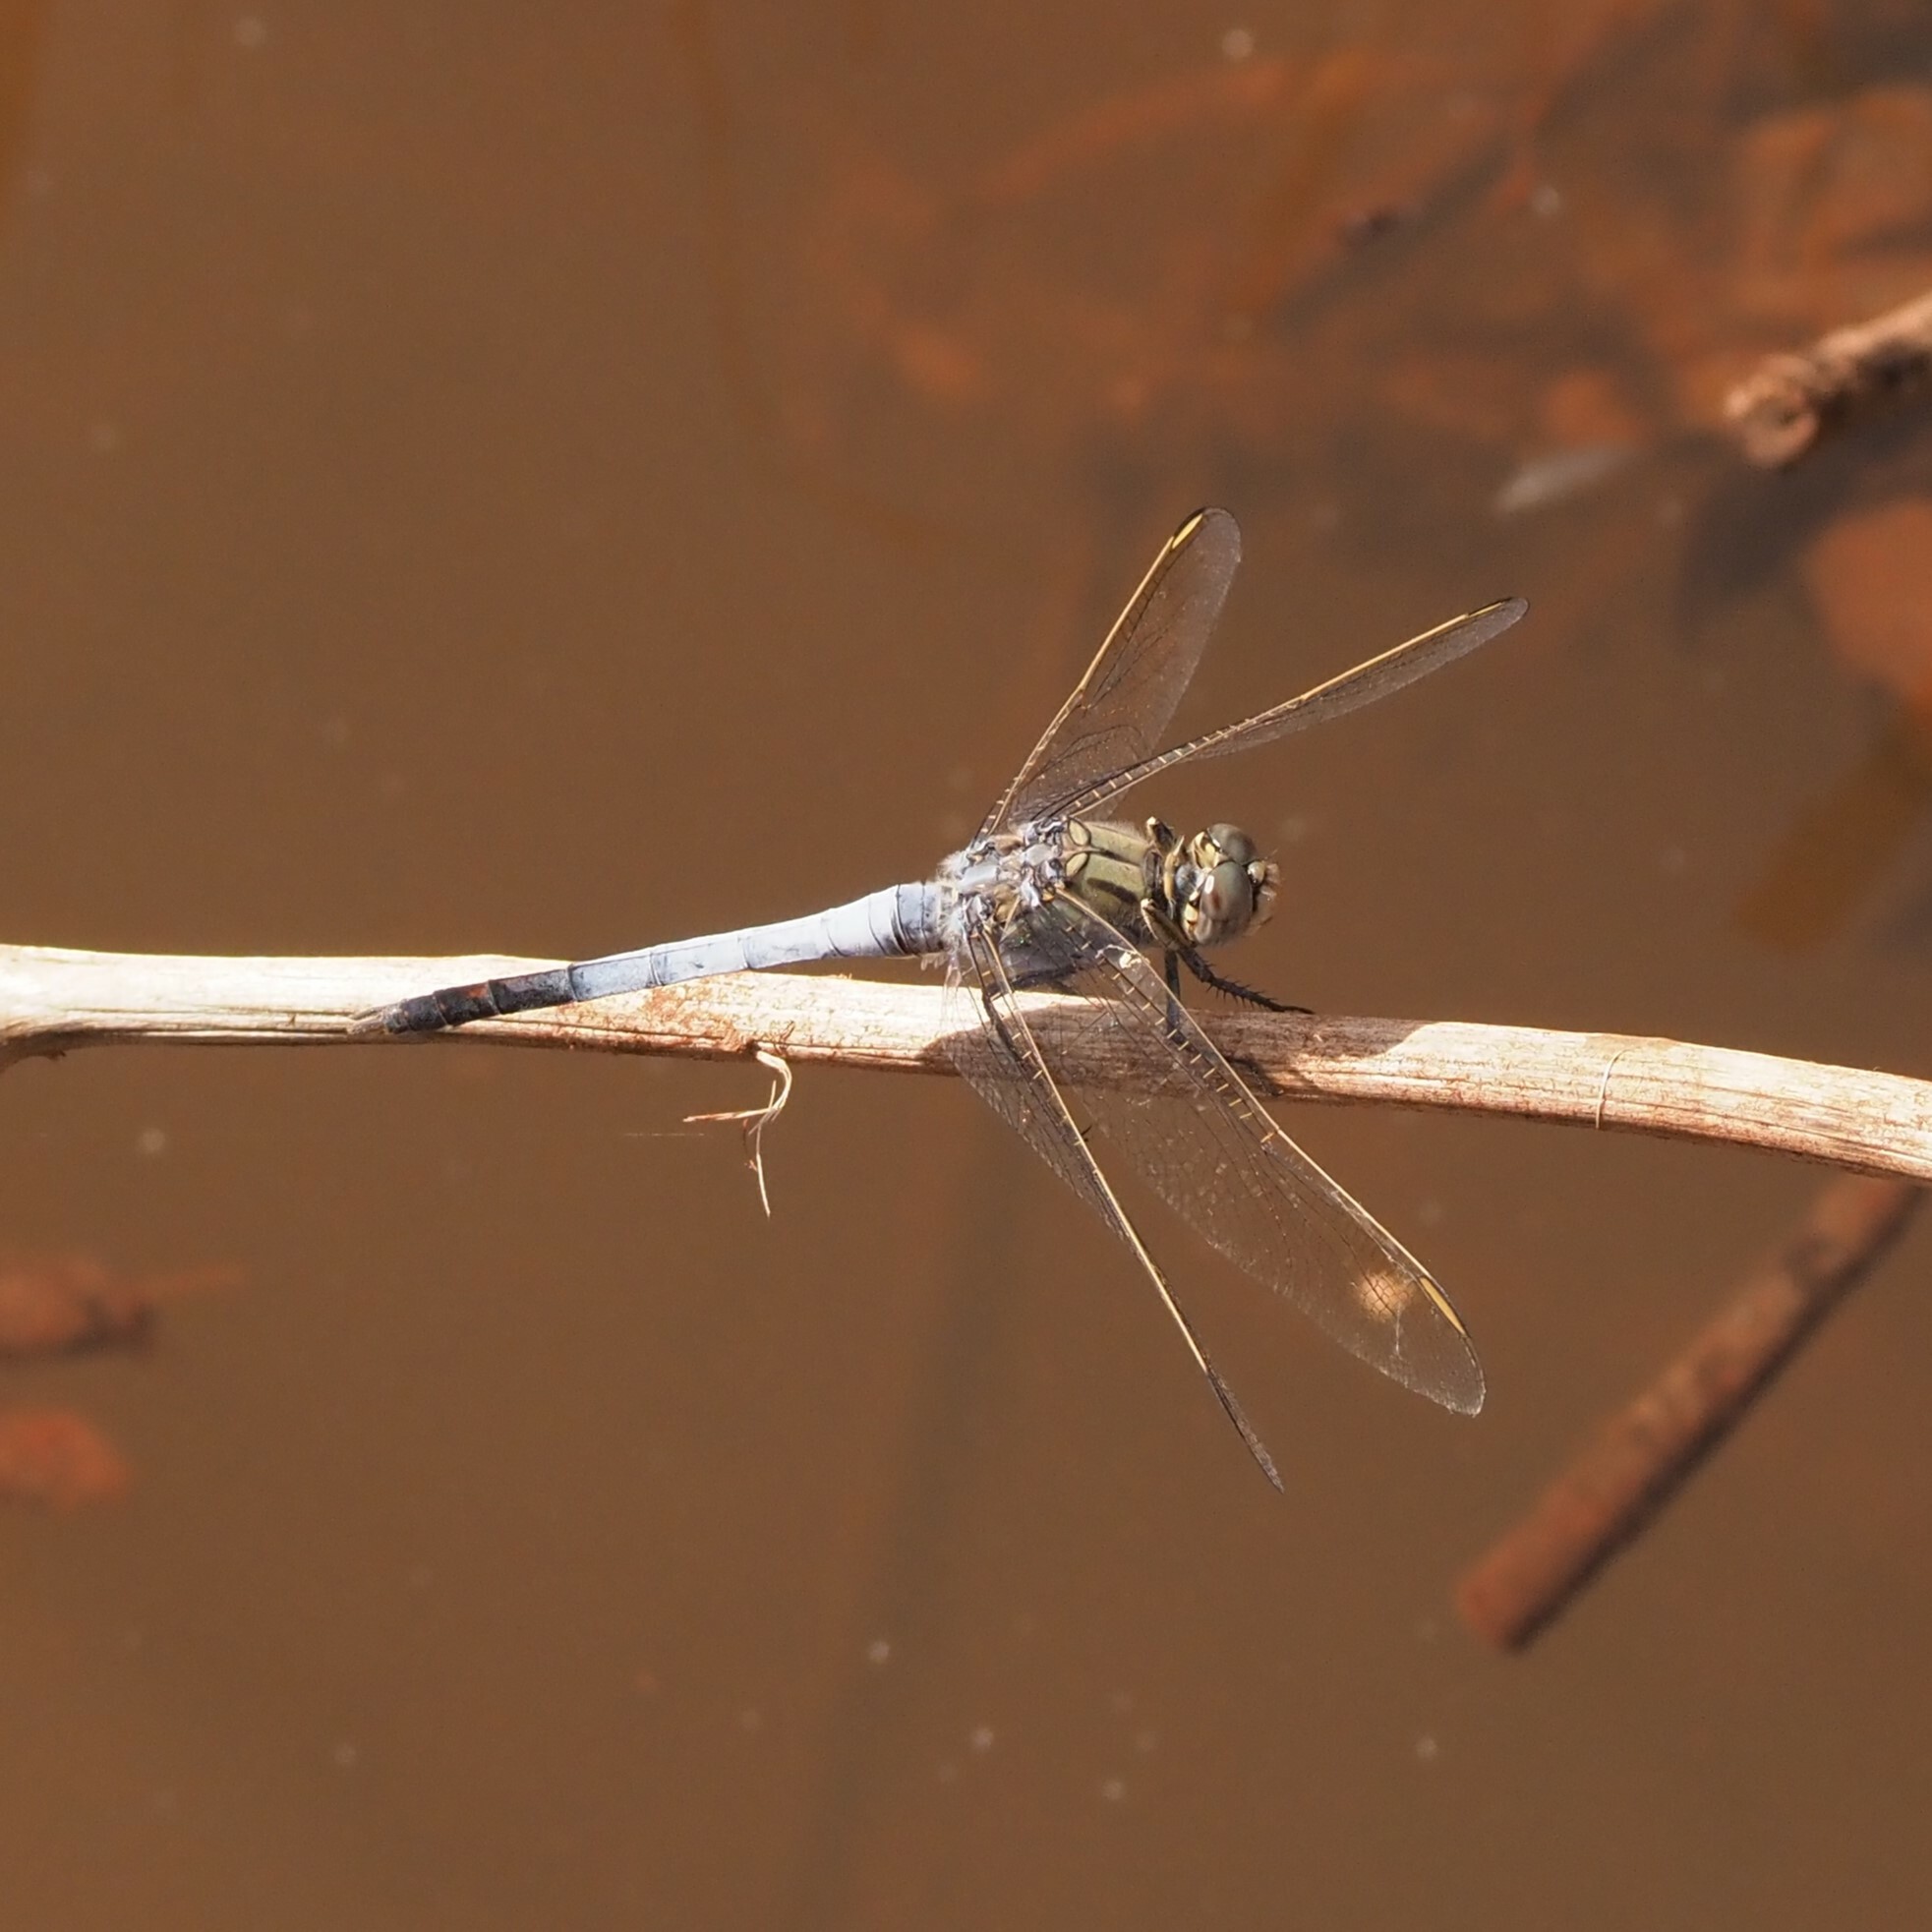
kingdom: Animalia
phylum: Arthropoda
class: Insecta
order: Odonata
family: Libellulidae
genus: Orthetrum
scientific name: Orthetrum caledonicum
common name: Blue skimmer
